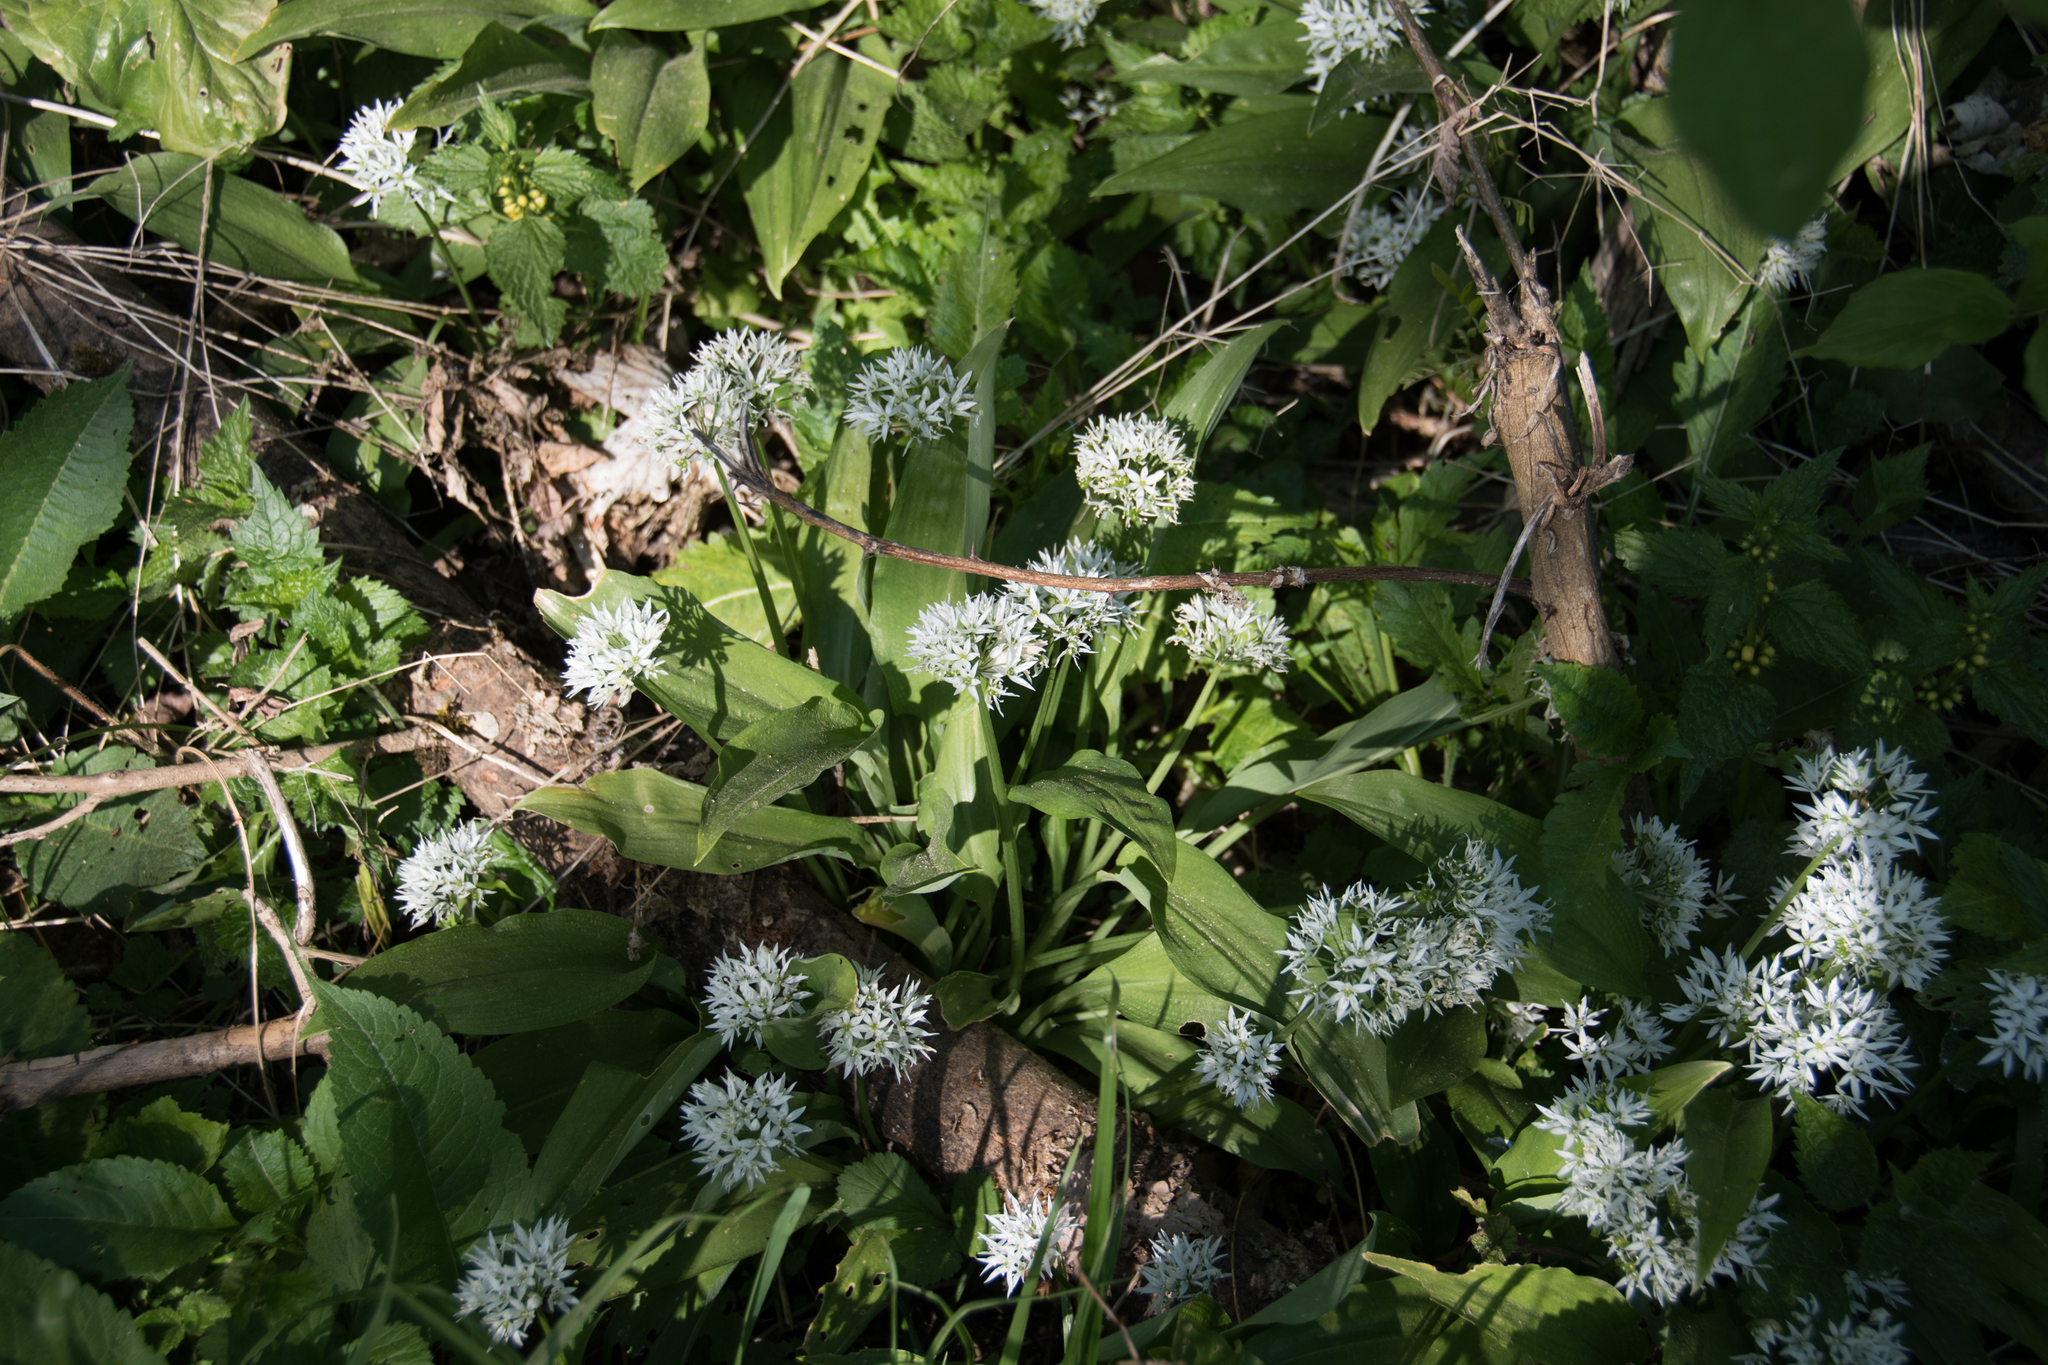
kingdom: Plantae
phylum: Tracheophyta
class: Liliopsida
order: Asparagales
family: Amaryllidaceae
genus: Allium
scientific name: Allium ursinum
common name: Ramsons
